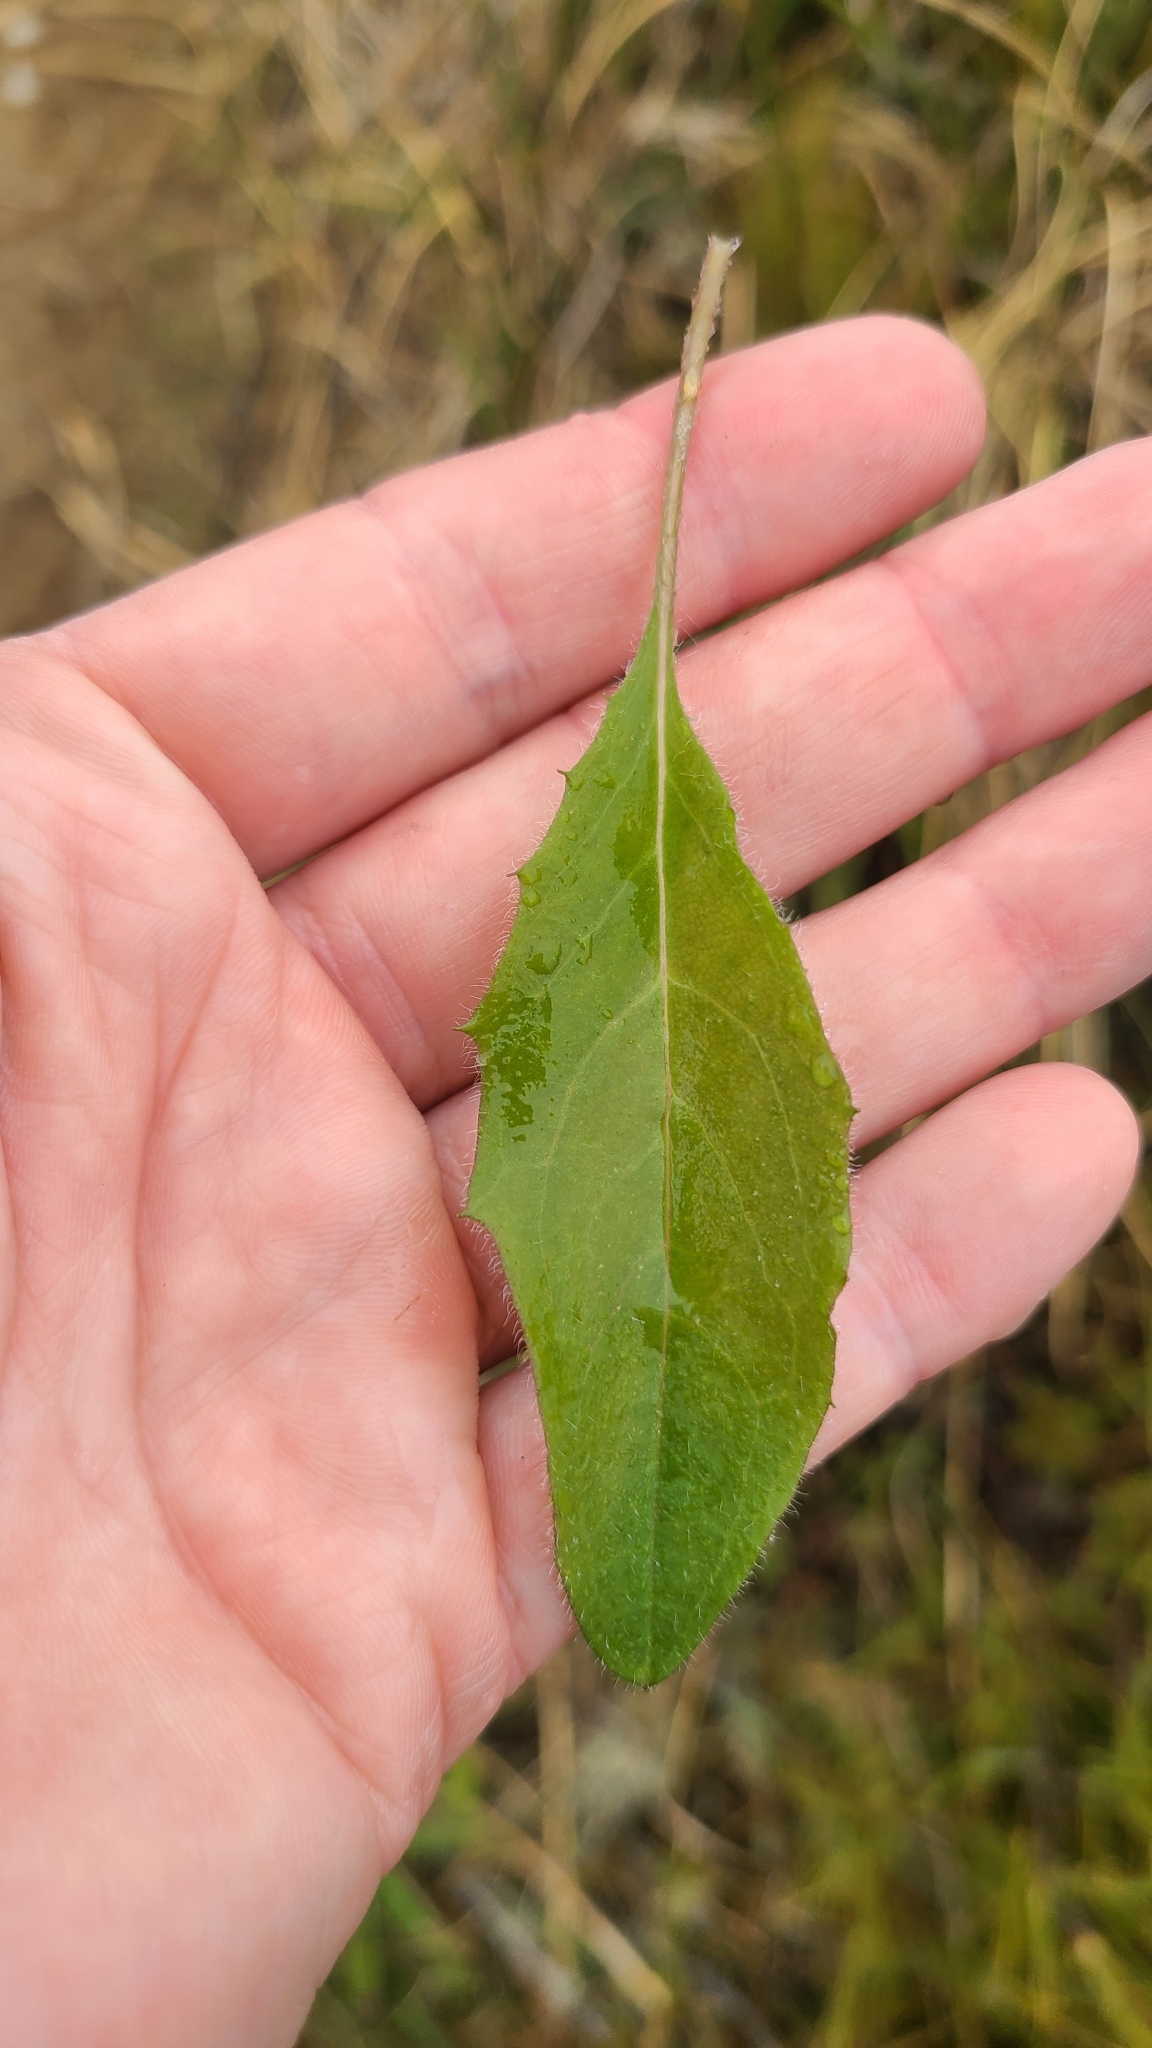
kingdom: Plantae
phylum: Tracheophyta
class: Magnoliopsida
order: Asterales
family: Asteraceae
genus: Hieracium
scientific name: Hieracium lepidulum
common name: Irregular-toothed hawkweed
